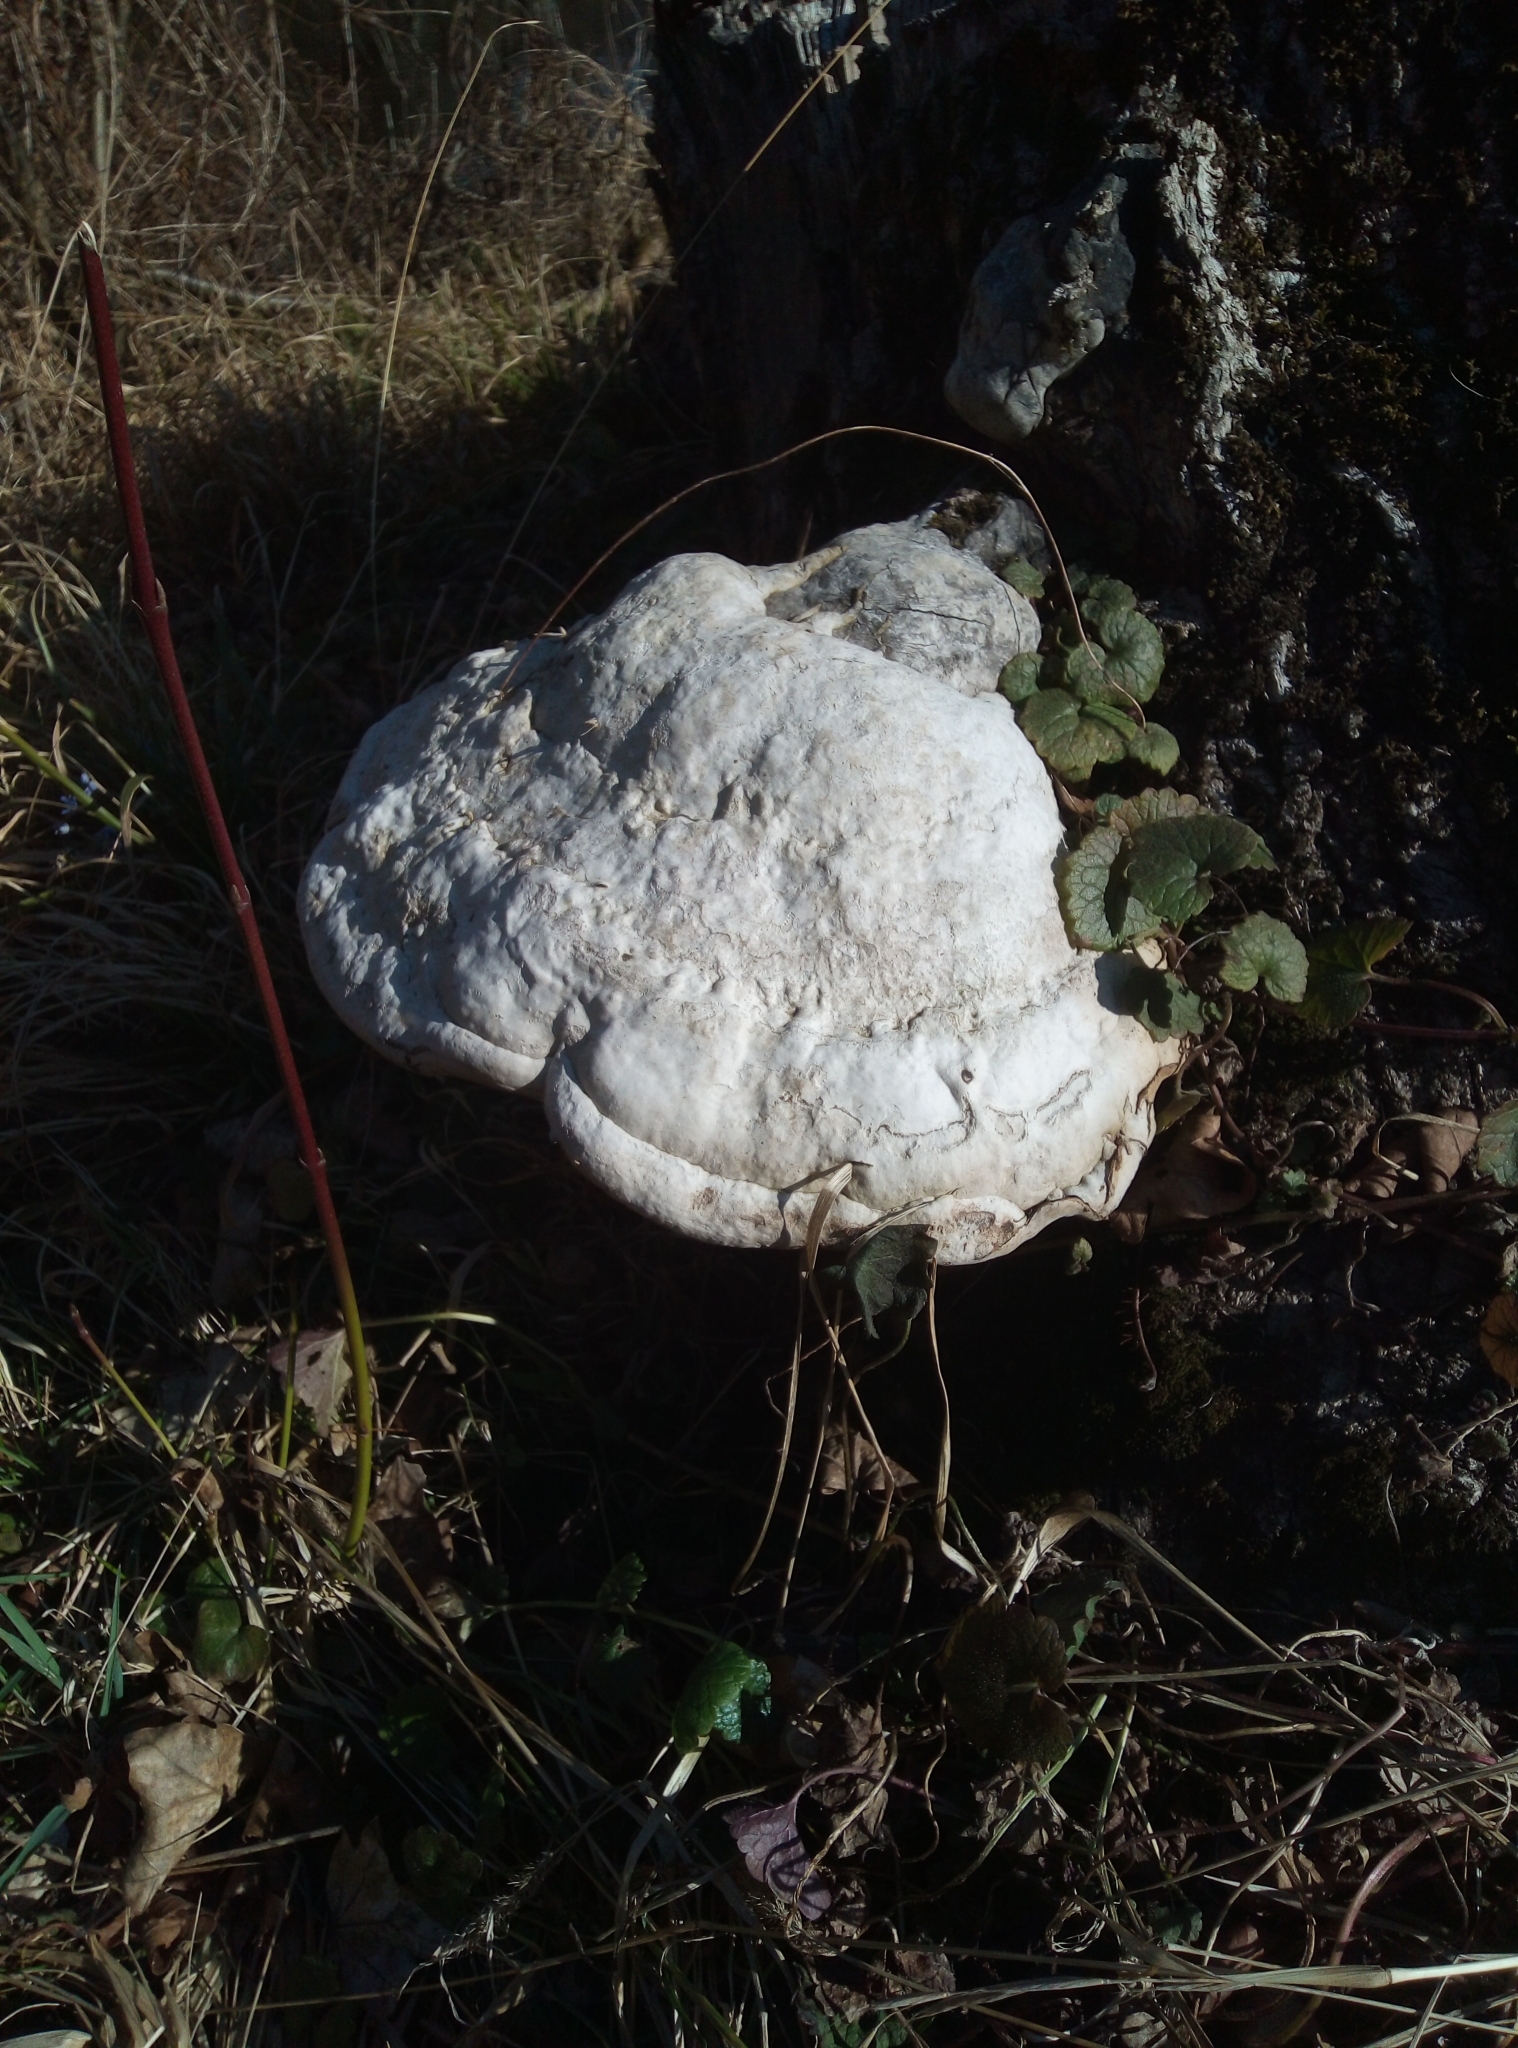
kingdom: Fungi
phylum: Basidiomycota
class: Agaricomycetes
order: Polyporales
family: Polyporaceae
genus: Fomes
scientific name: Fomes fomentarius
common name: Hoof fungus
